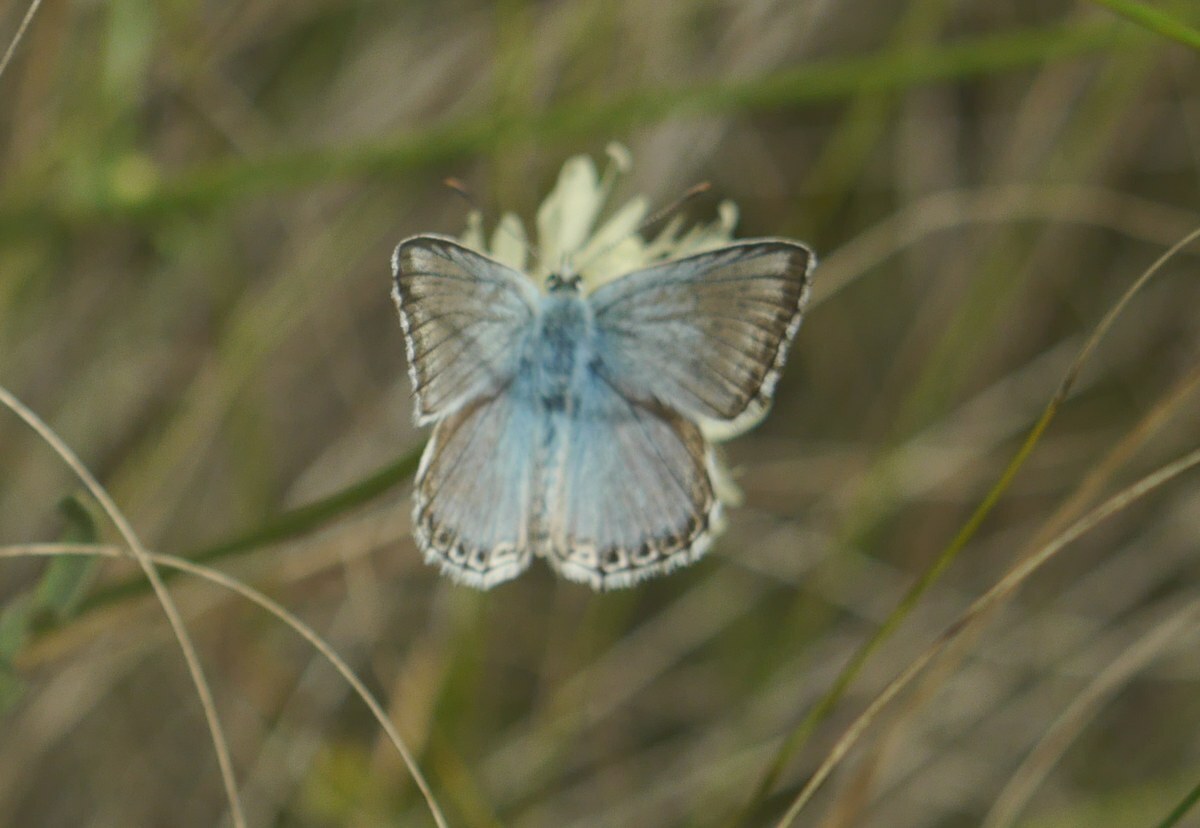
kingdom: Animalia
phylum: Arthropoda
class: Insecta
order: Lepidoptera
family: Lycaenidae
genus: Lysandra
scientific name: Lysandra coridon
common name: Chalkhill blue
